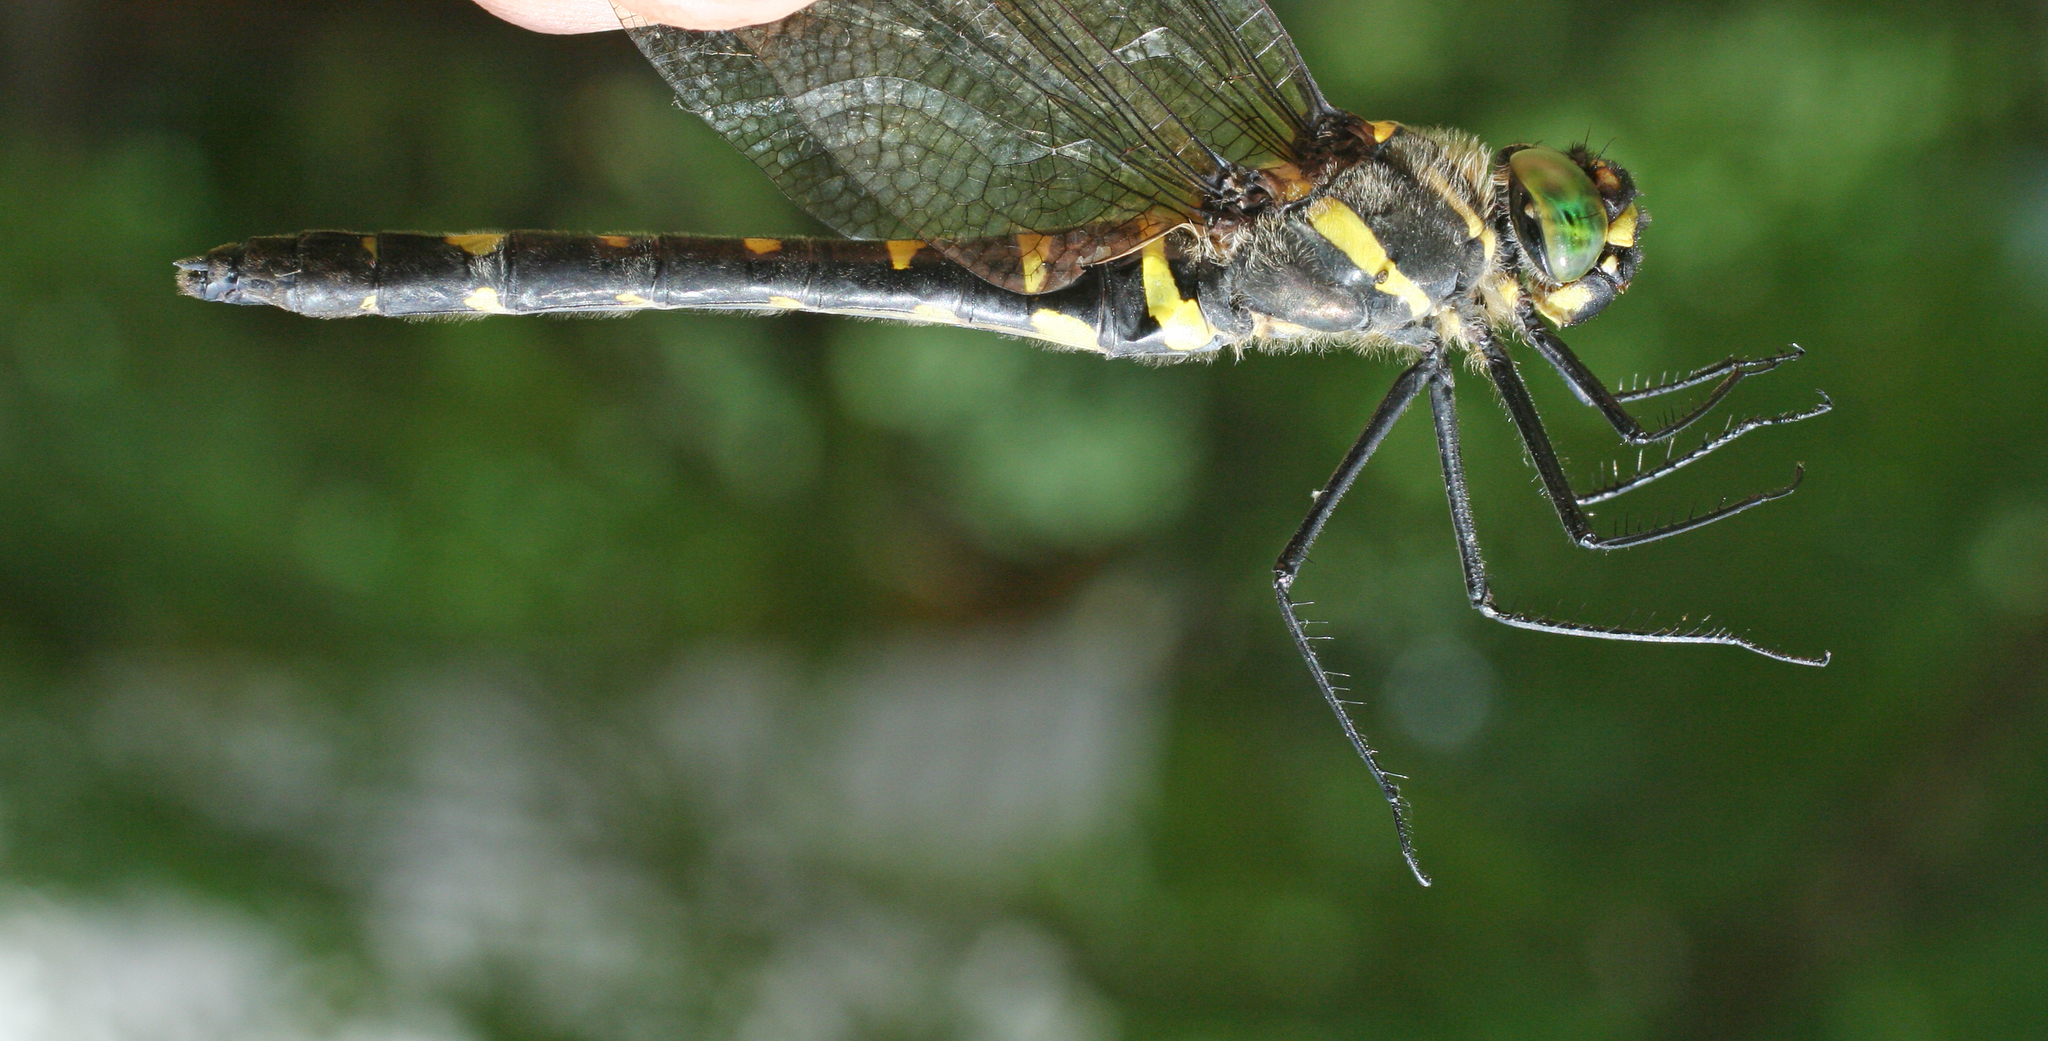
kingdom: Animalia
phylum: Arthropoda
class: Insecta
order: Odonata
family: Macromiidae
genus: Macromia
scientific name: Macromia amphigena
